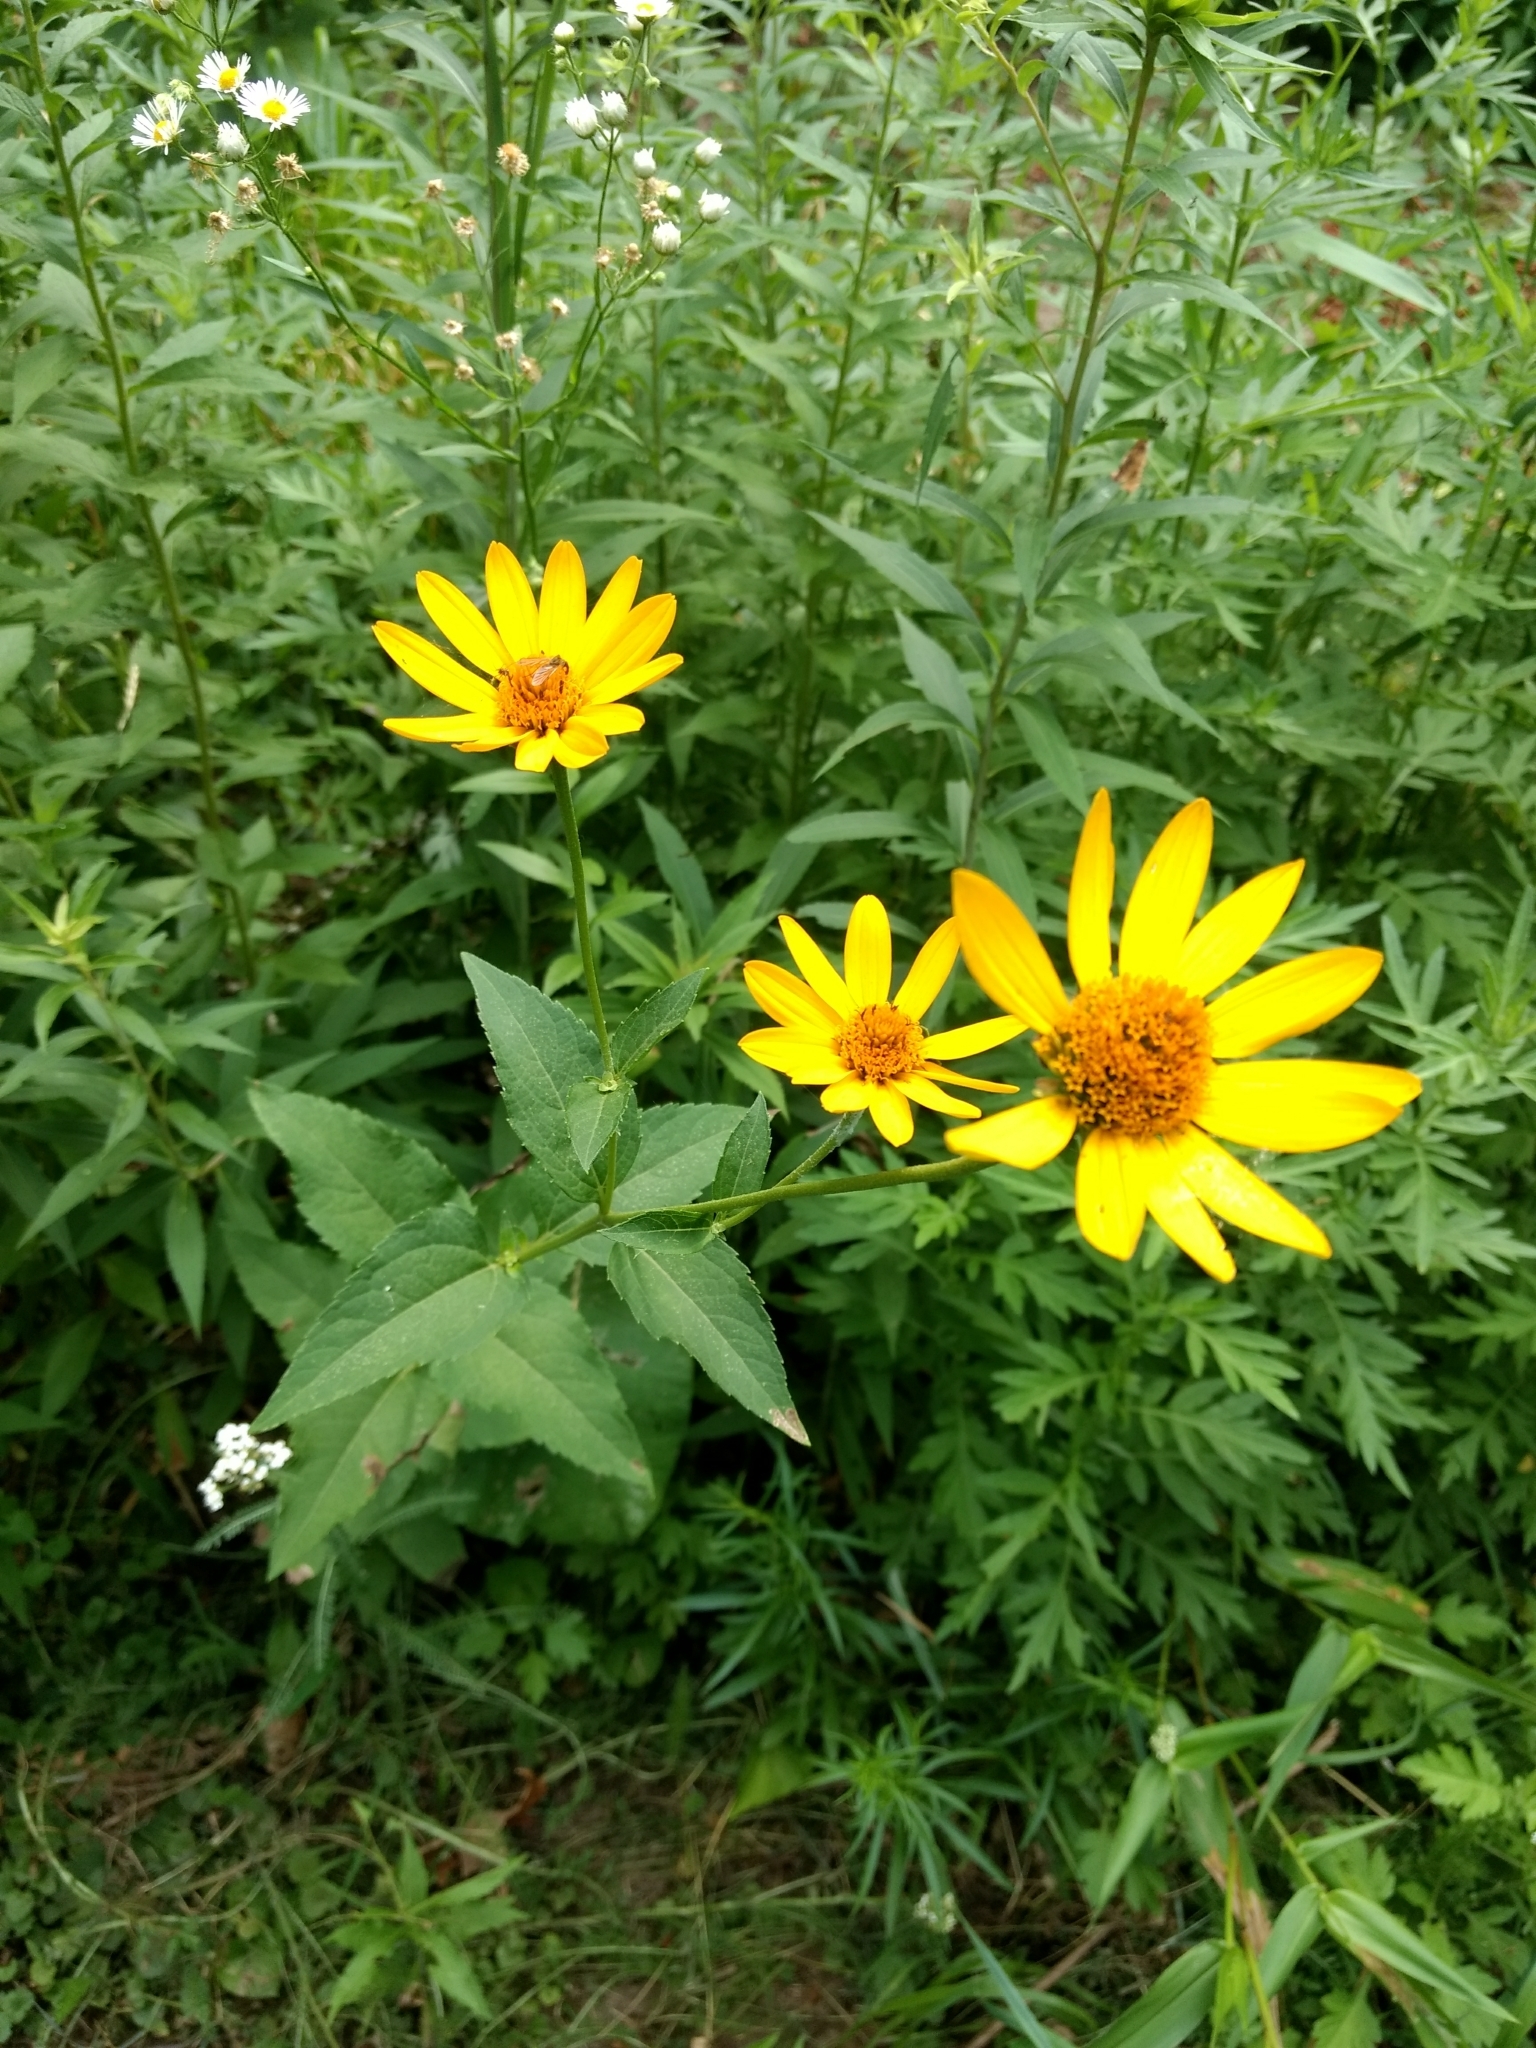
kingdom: Plantae
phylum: Tracheophyta
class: Magnoliopsida
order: Asterales
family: Asteraceae
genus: Heliopsis
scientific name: Heliopsis helianthoides
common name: False sunflower
